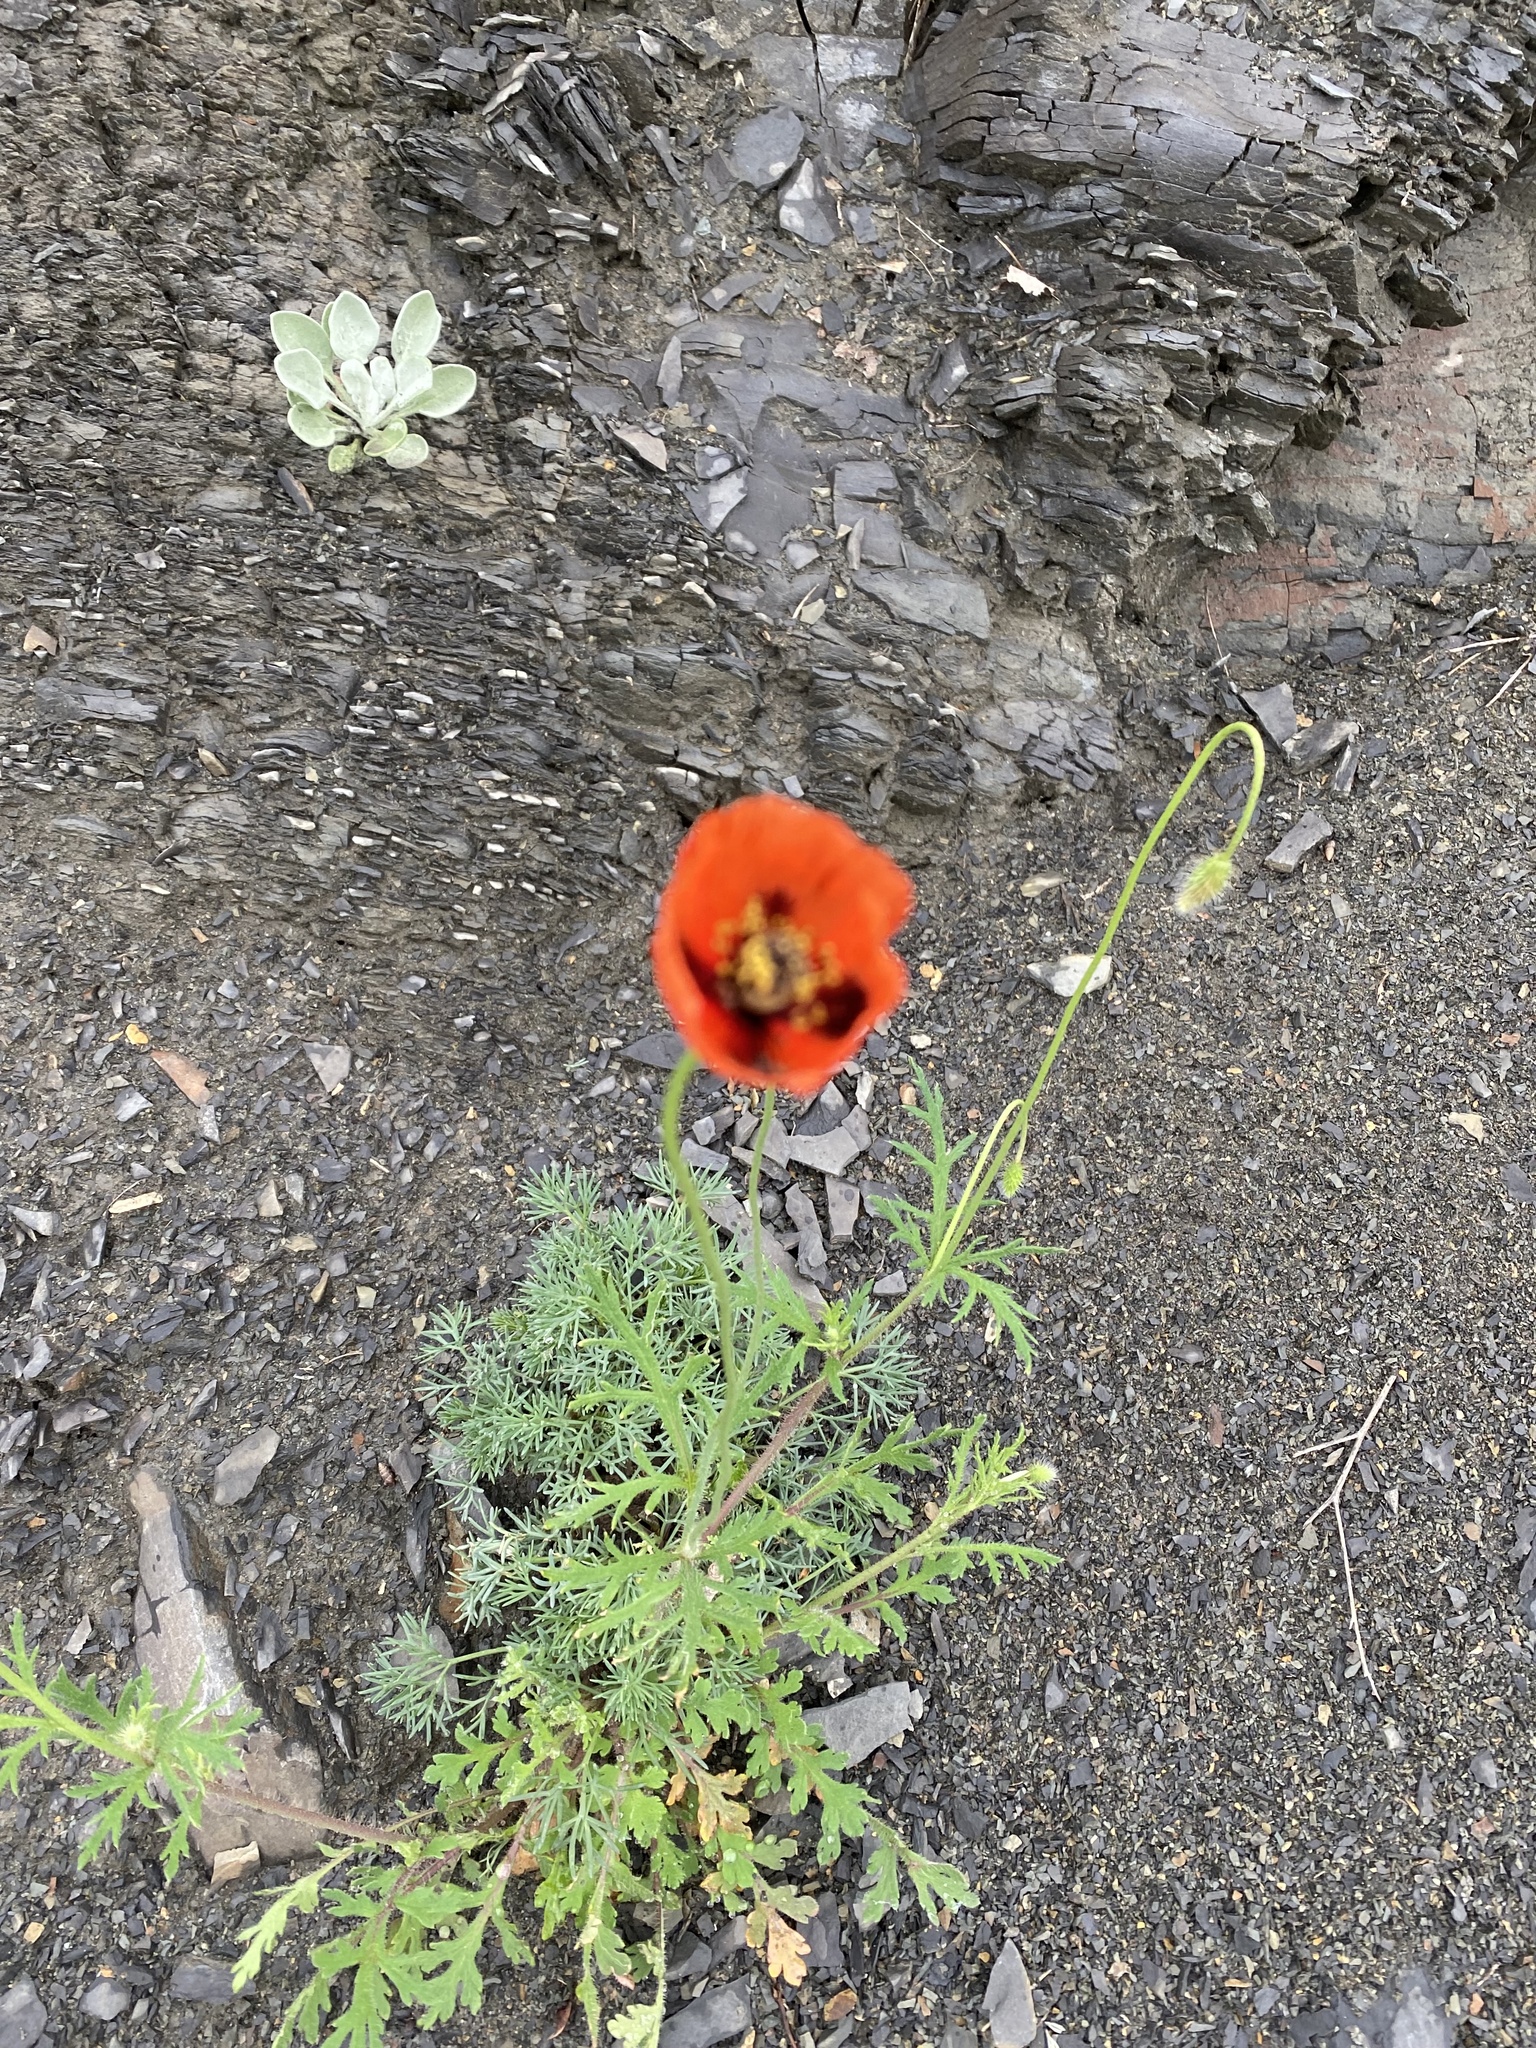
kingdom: Plantae
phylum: Tracheophyta
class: Magnoliopsida
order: Ranunculales
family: Papaveraceae
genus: Papaver
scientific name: Papaver dubium
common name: Long-headed poppy
